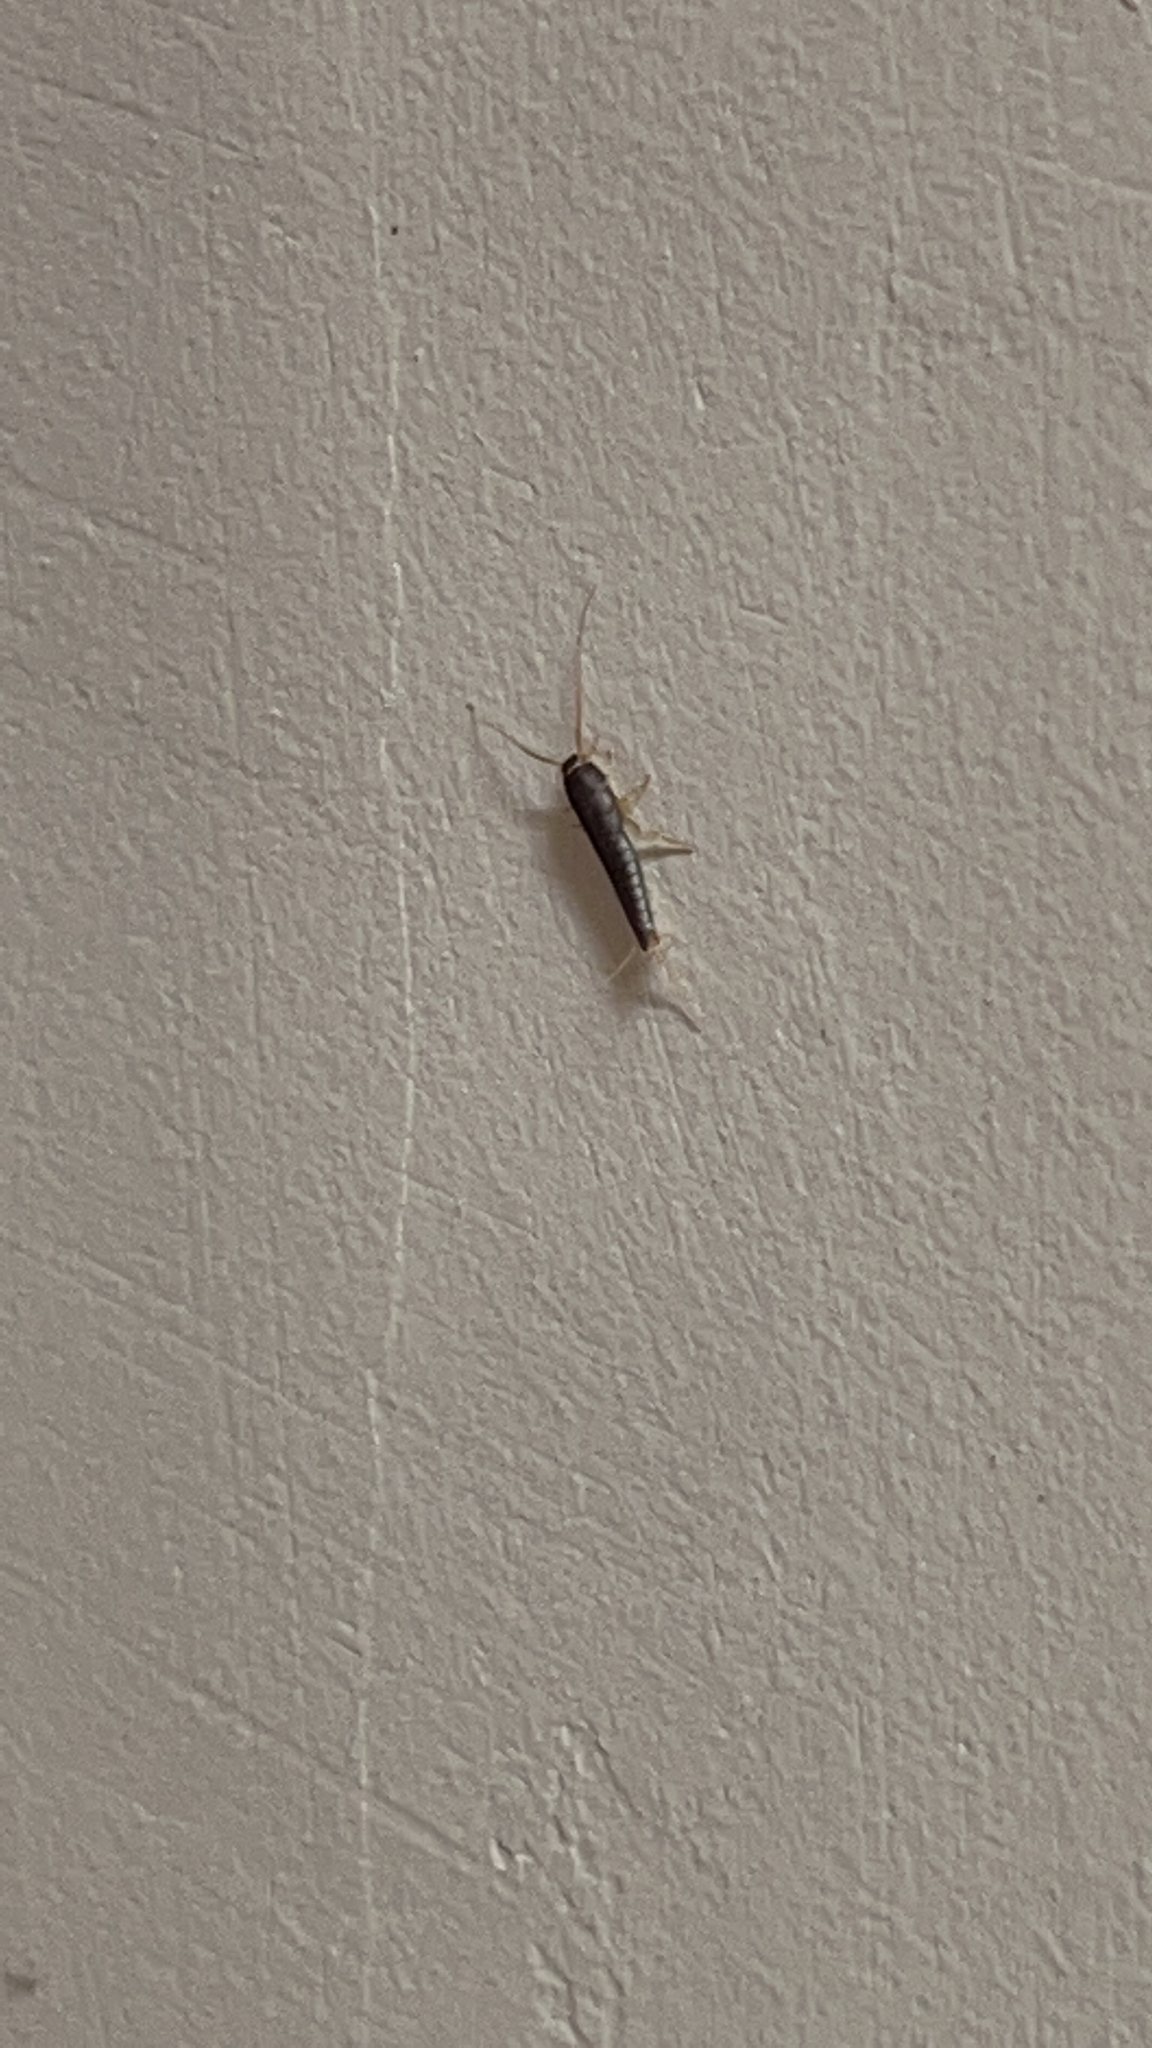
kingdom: Animalia
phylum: Arthropoda
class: Insecta
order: Zygentoma
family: Lepismatidae
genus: Lepisma
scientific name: Lepisma saccharinum
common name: Silverfish
